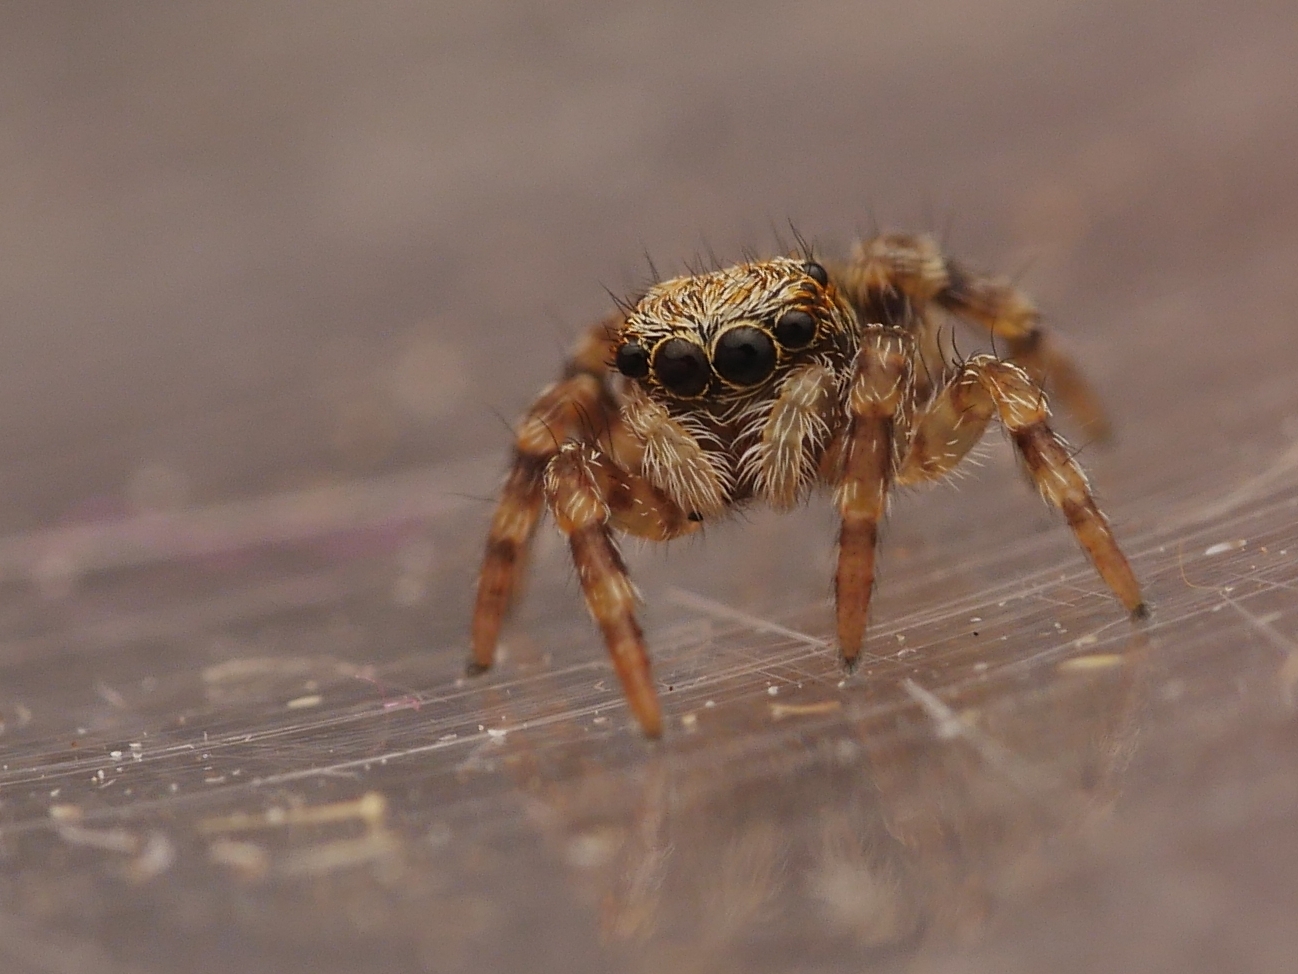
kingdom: Animalia
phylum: Arthropoda
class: Arachnida
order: Araneae
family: Salticidae
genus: Pseudeuophrys
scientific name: Pseudeuophrys lanigera
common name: Jumping spider
